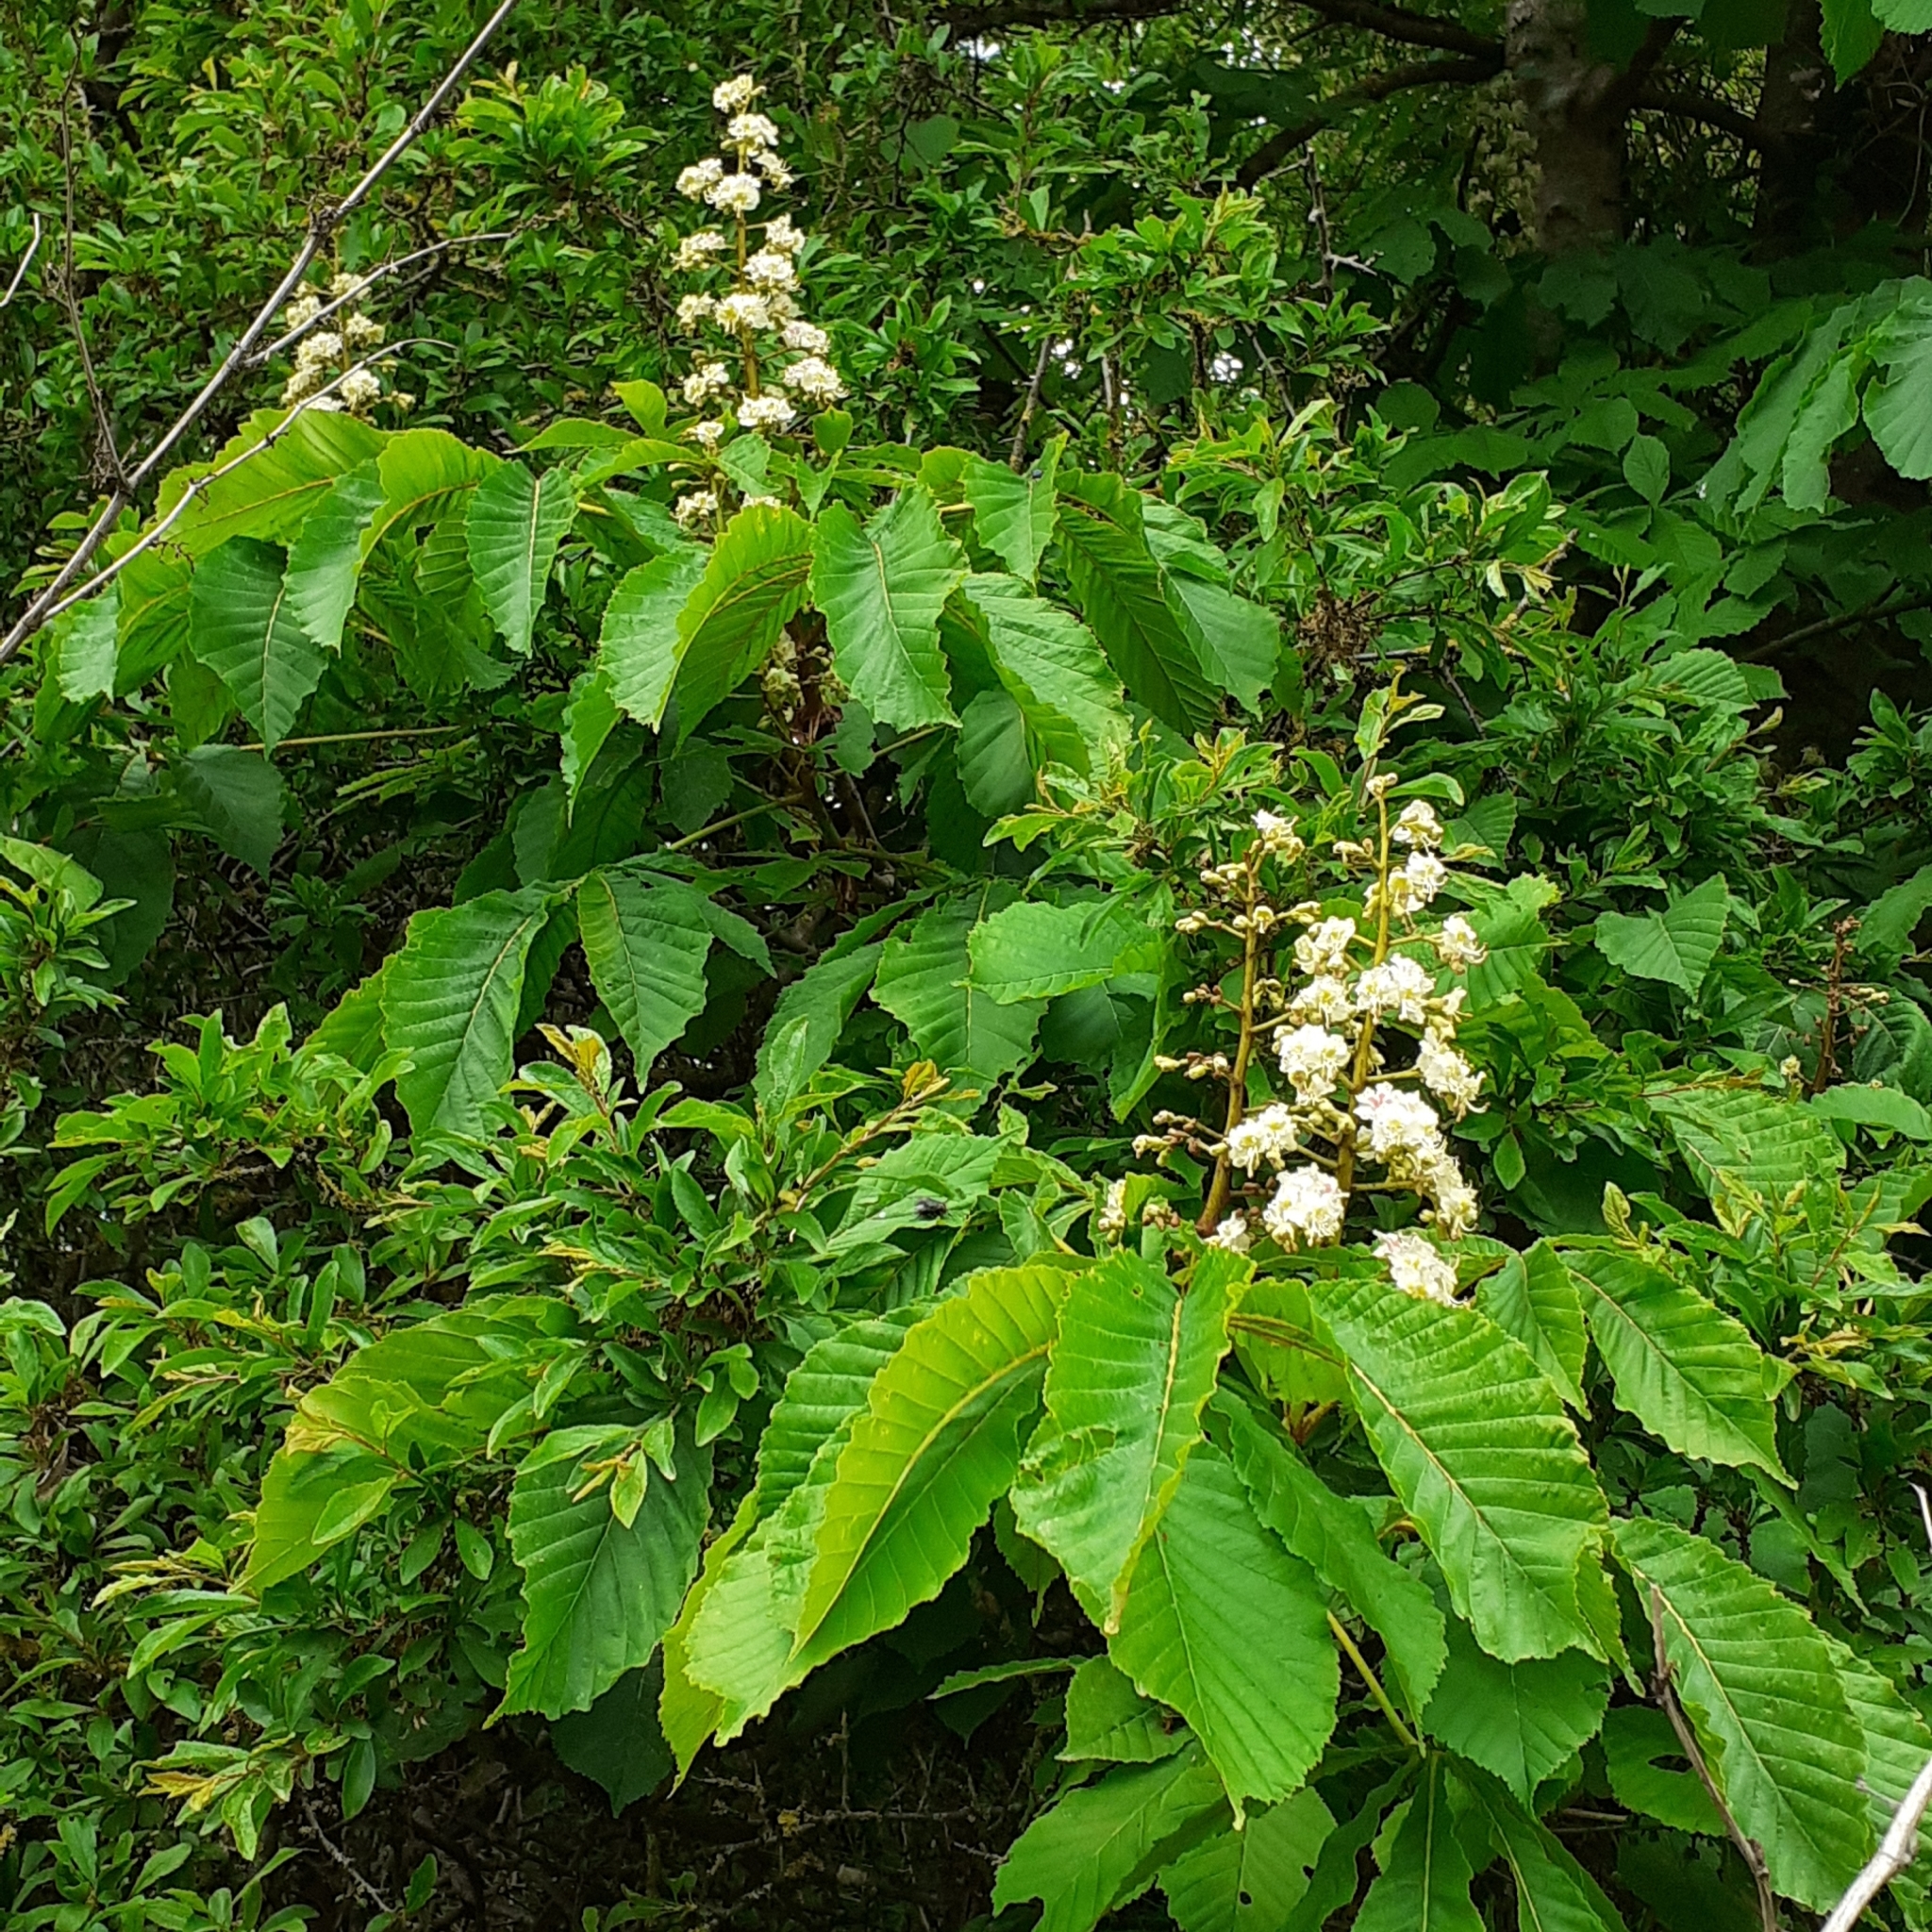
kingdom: Plantae
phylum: Tracheophyta
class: Magnoliopsida
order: Sapindales
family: Sapindaceae
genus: Aesculus
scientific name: Aesculus hippocastanum
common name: Horse-chestnut
